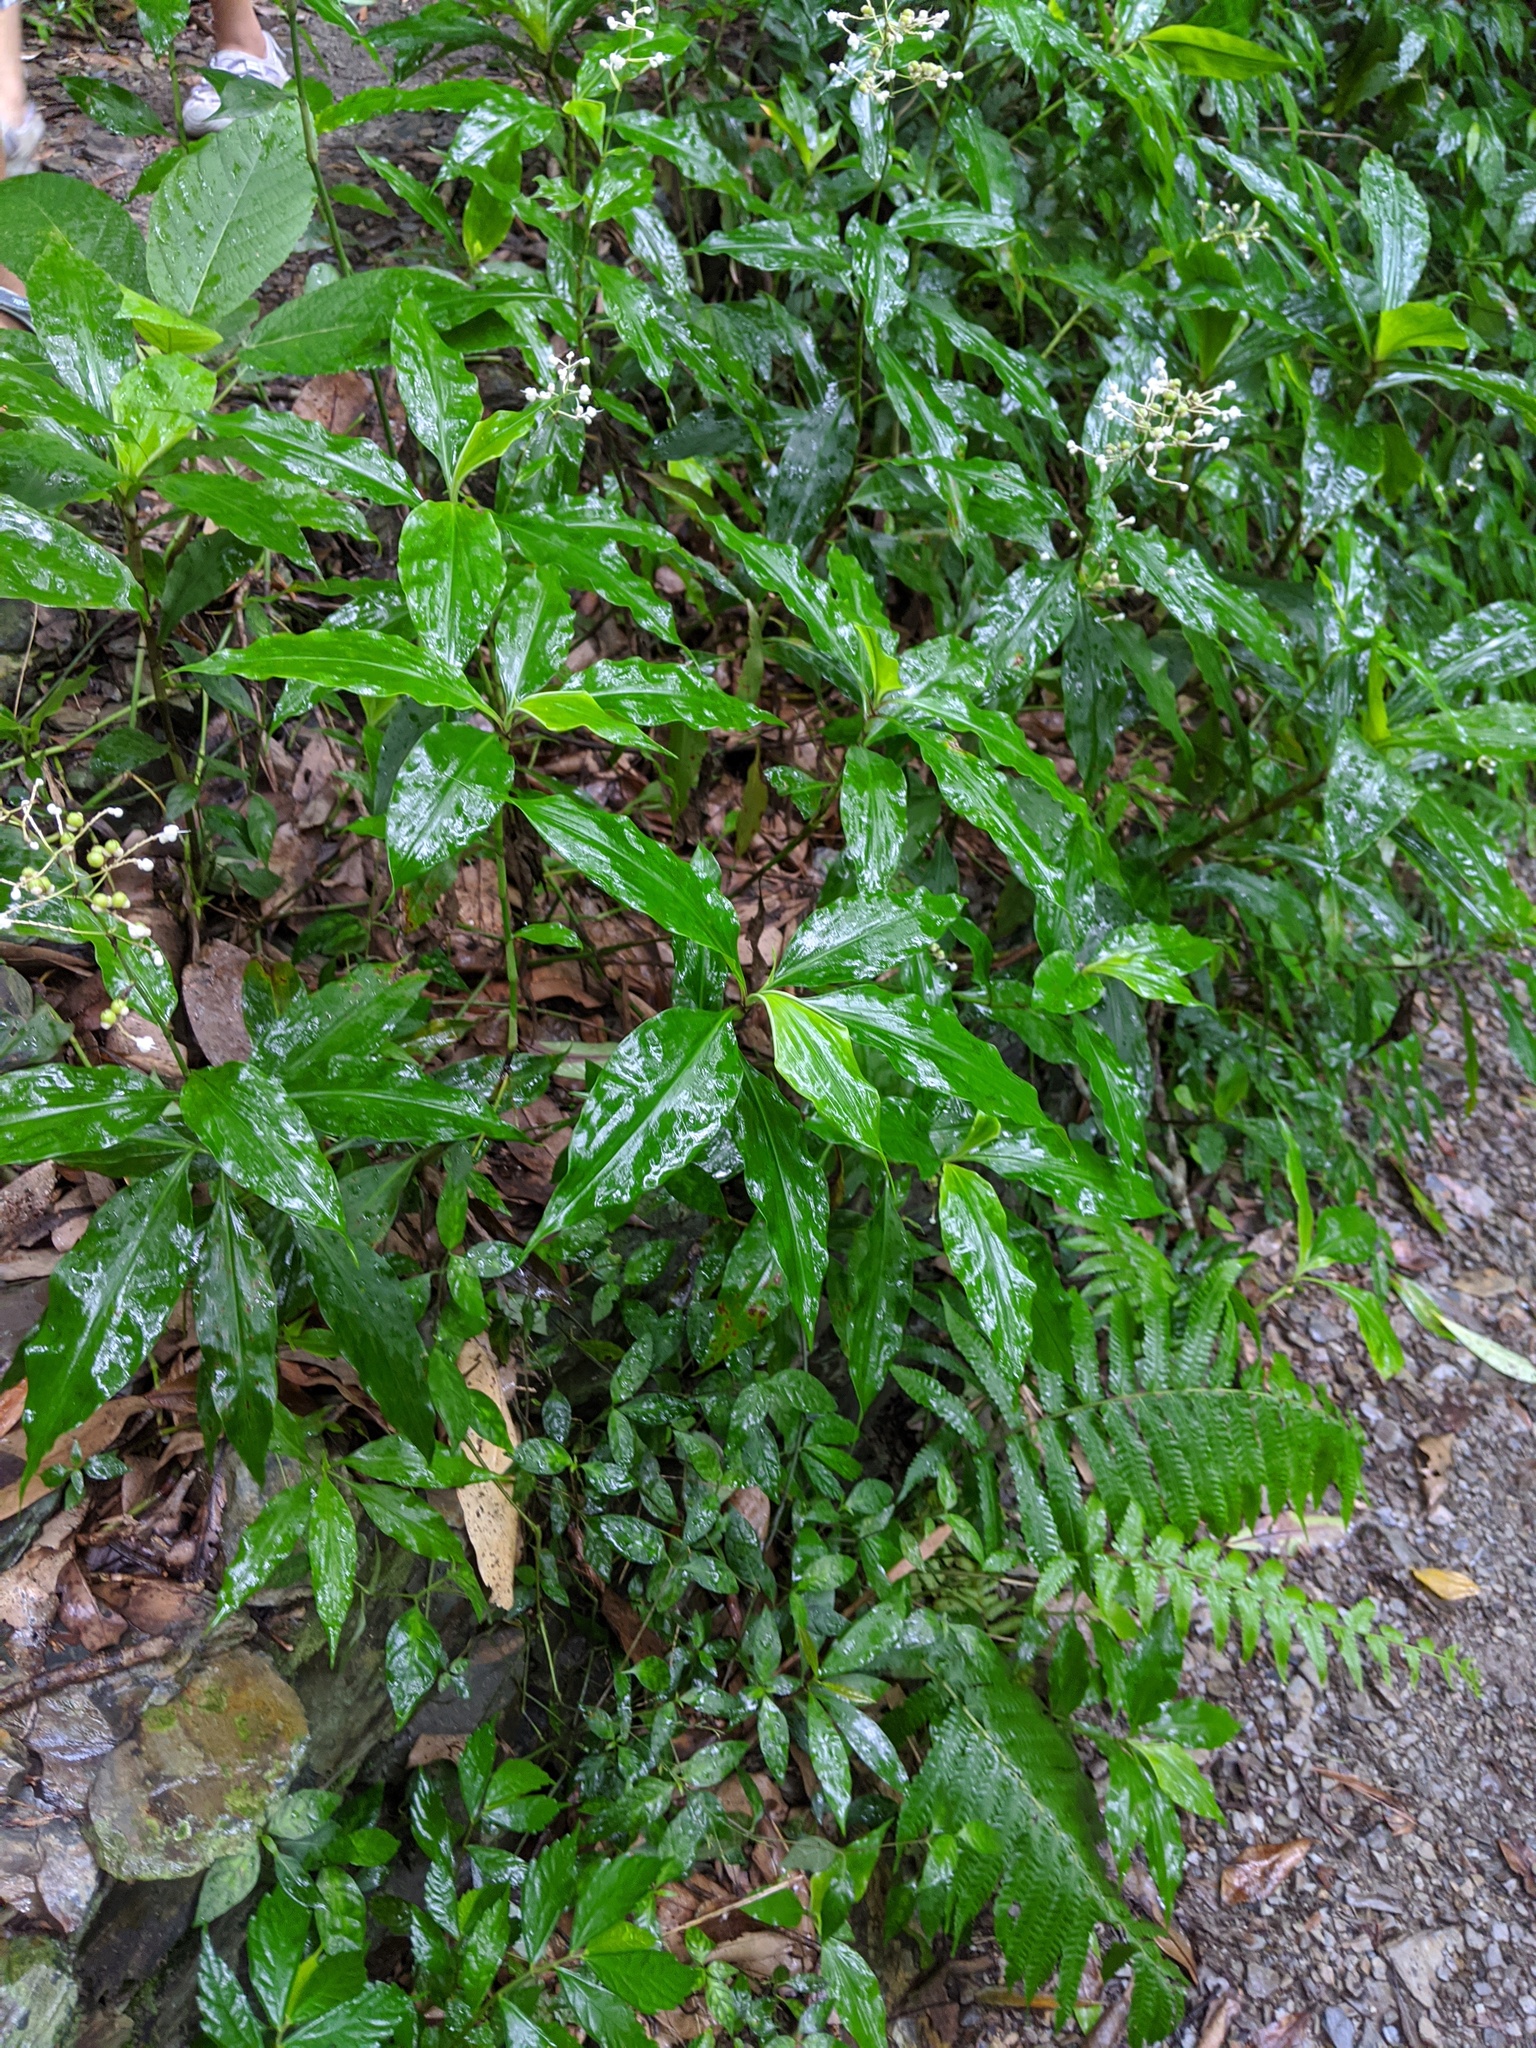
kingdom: Plantae
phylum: Tracheophyta
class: Liliopsida
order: Commelinales
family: Commelinaceae
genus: Pollia
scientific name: Pollia miranda
